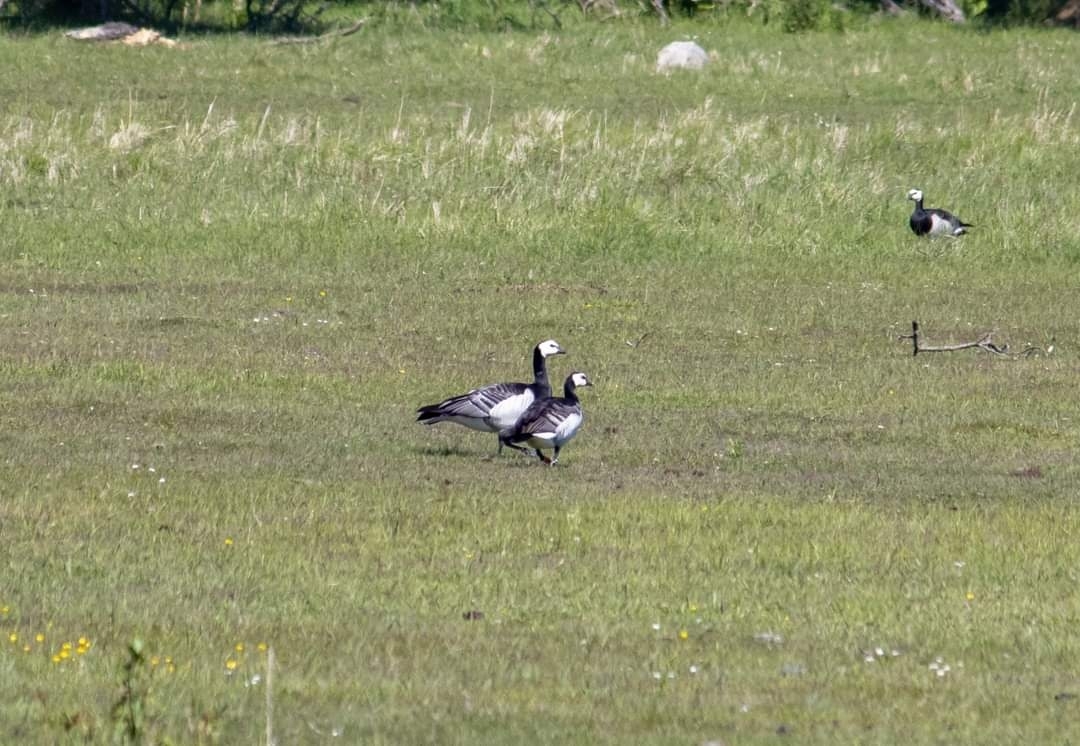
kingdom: Animalia
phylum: Chordata
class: Aves
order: Anseriformes
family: Anatidae
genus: Branta
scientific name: Branta leucopsis
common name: Barnacle goose
